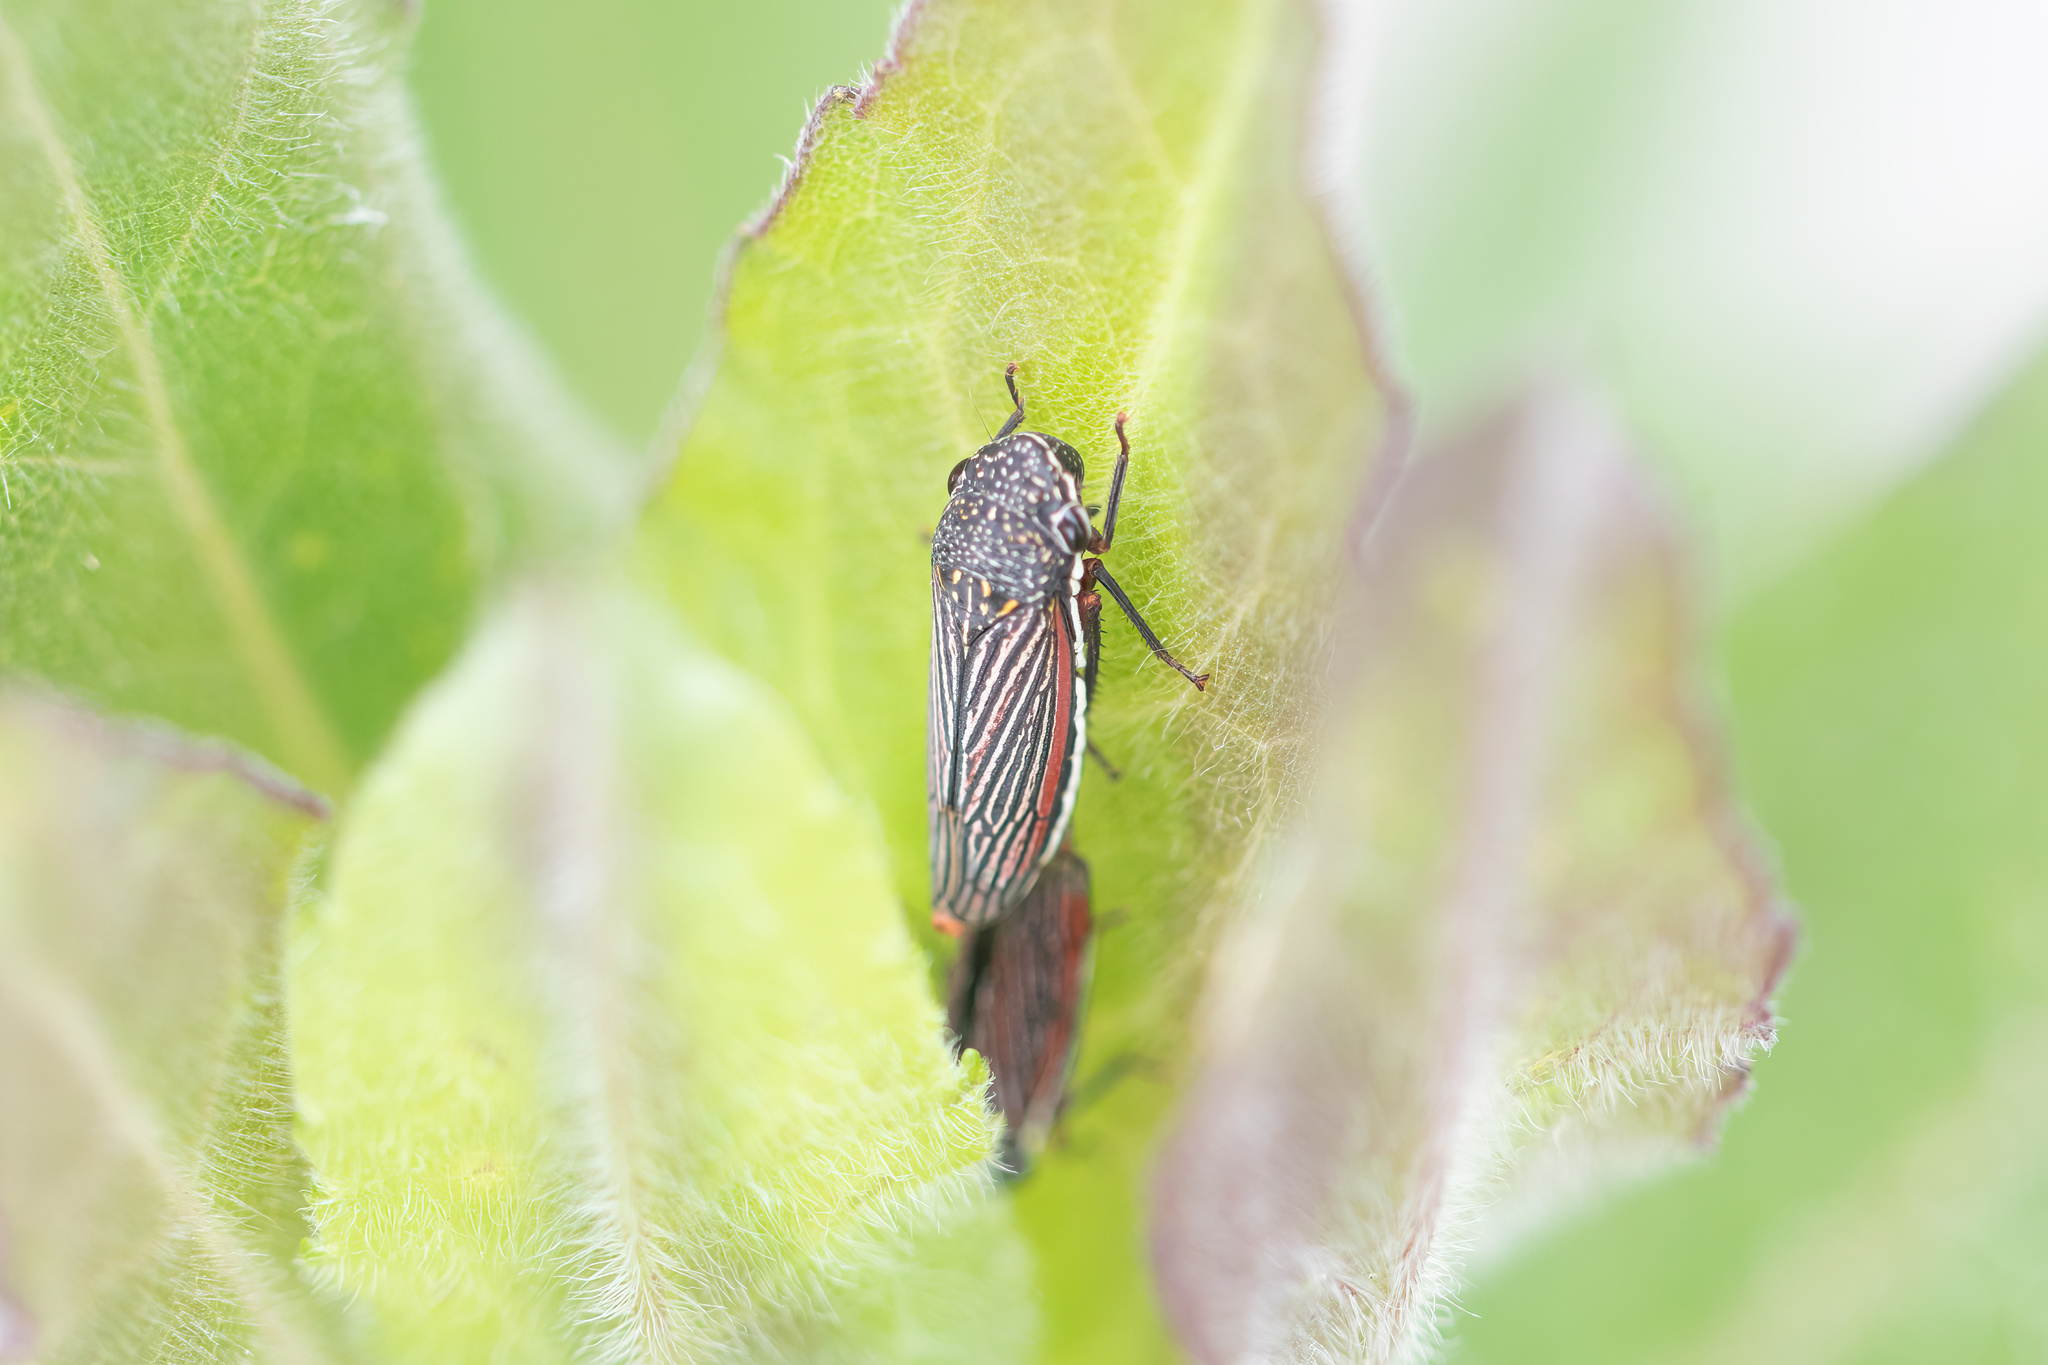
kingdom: Animalia
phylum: Arthropoda
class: Insecta
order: Hemiptera
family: Cicadellidae
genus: Cuerna
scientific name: Cuerna costalis
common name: Lateral-lined sharpshooter
